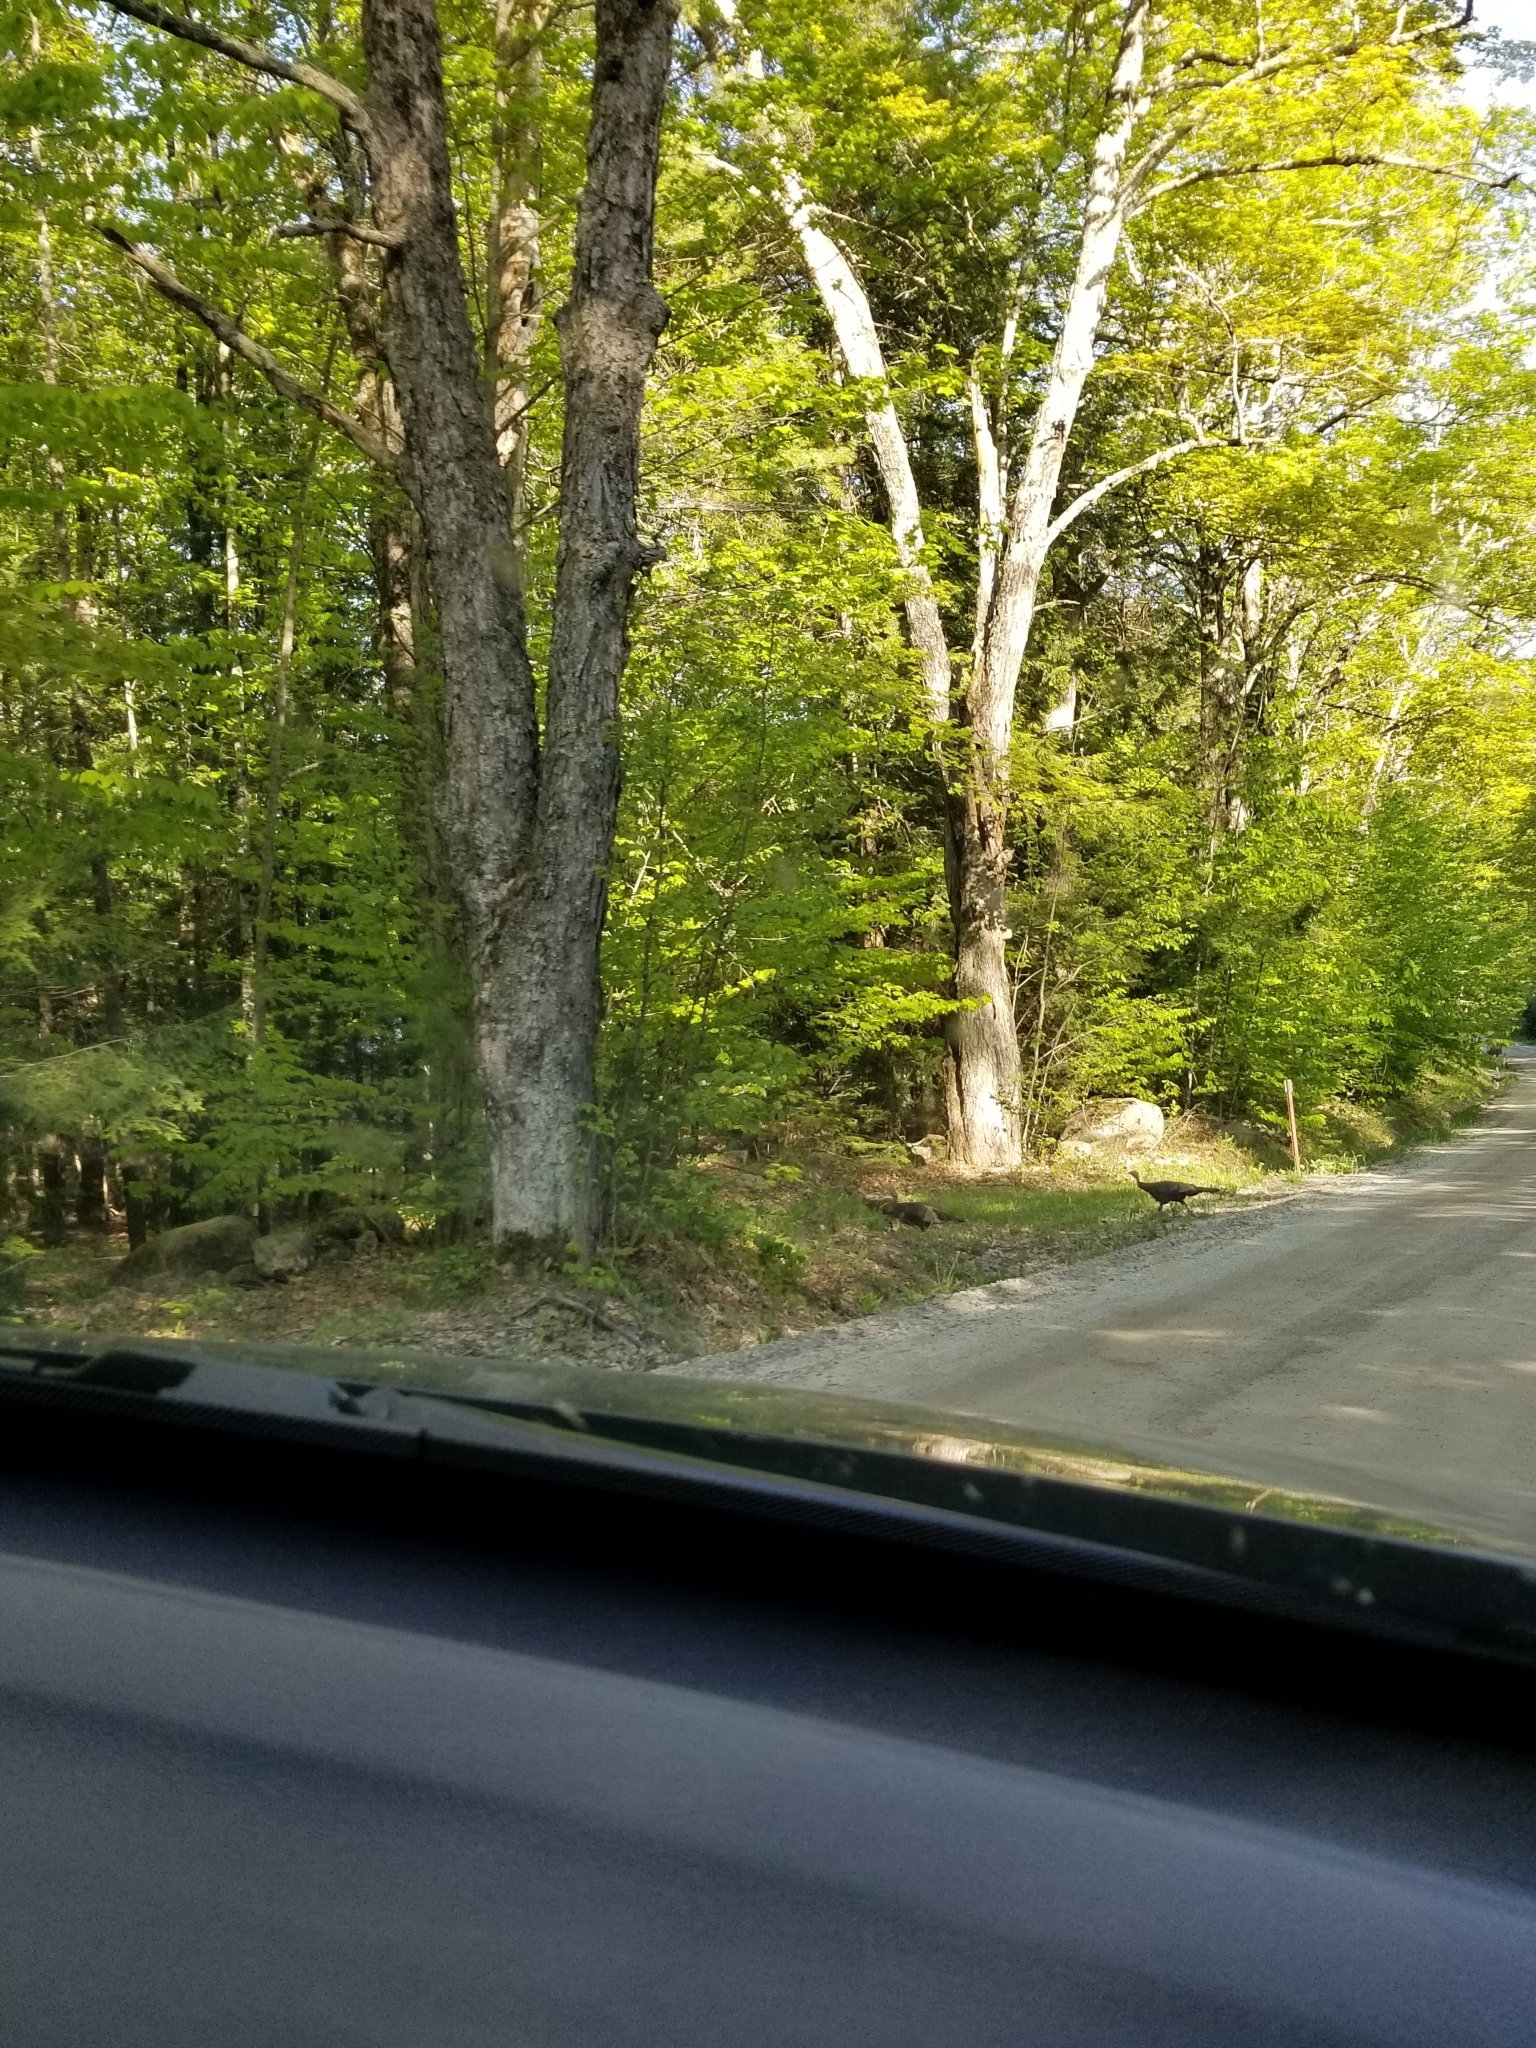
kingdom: Animalia
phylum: Chordata
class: Aves
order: Galliformes
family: Phasianidae
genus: Meleagris
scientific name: Meleagris gallopavo
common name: Wild turkey
